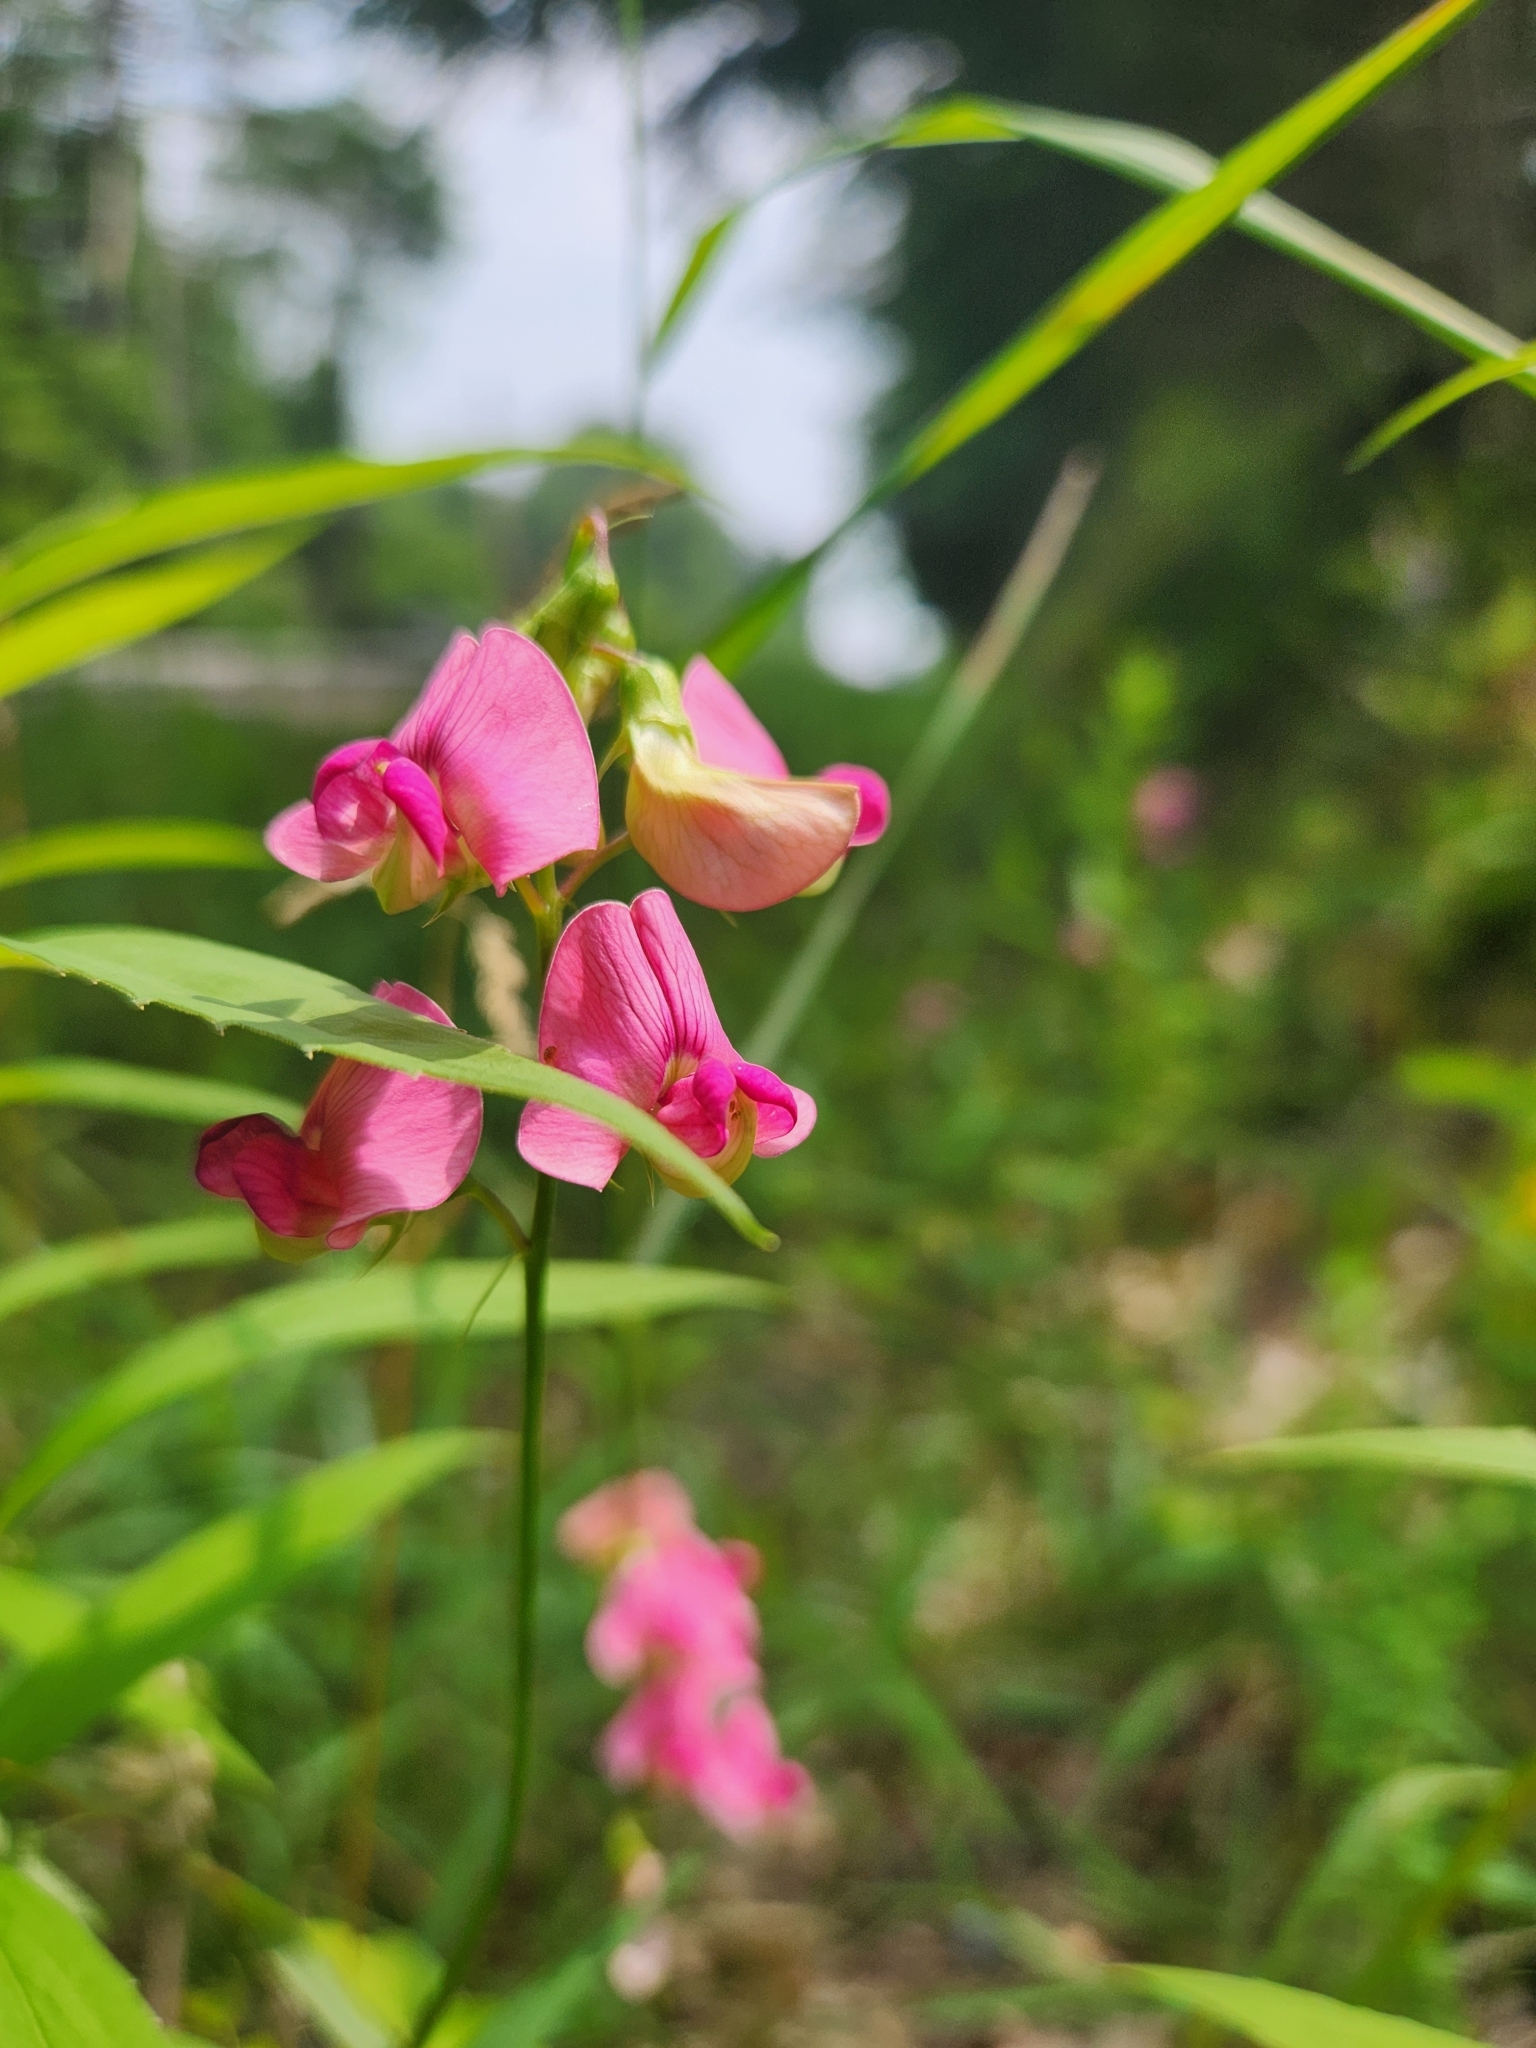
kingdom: Plantae
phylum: Tracheophyta
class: Magnoliopsida
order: Fabales
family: Fabaceae
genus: Lathyrus
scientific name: Lathyrus sylvestris
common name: Flat pea
